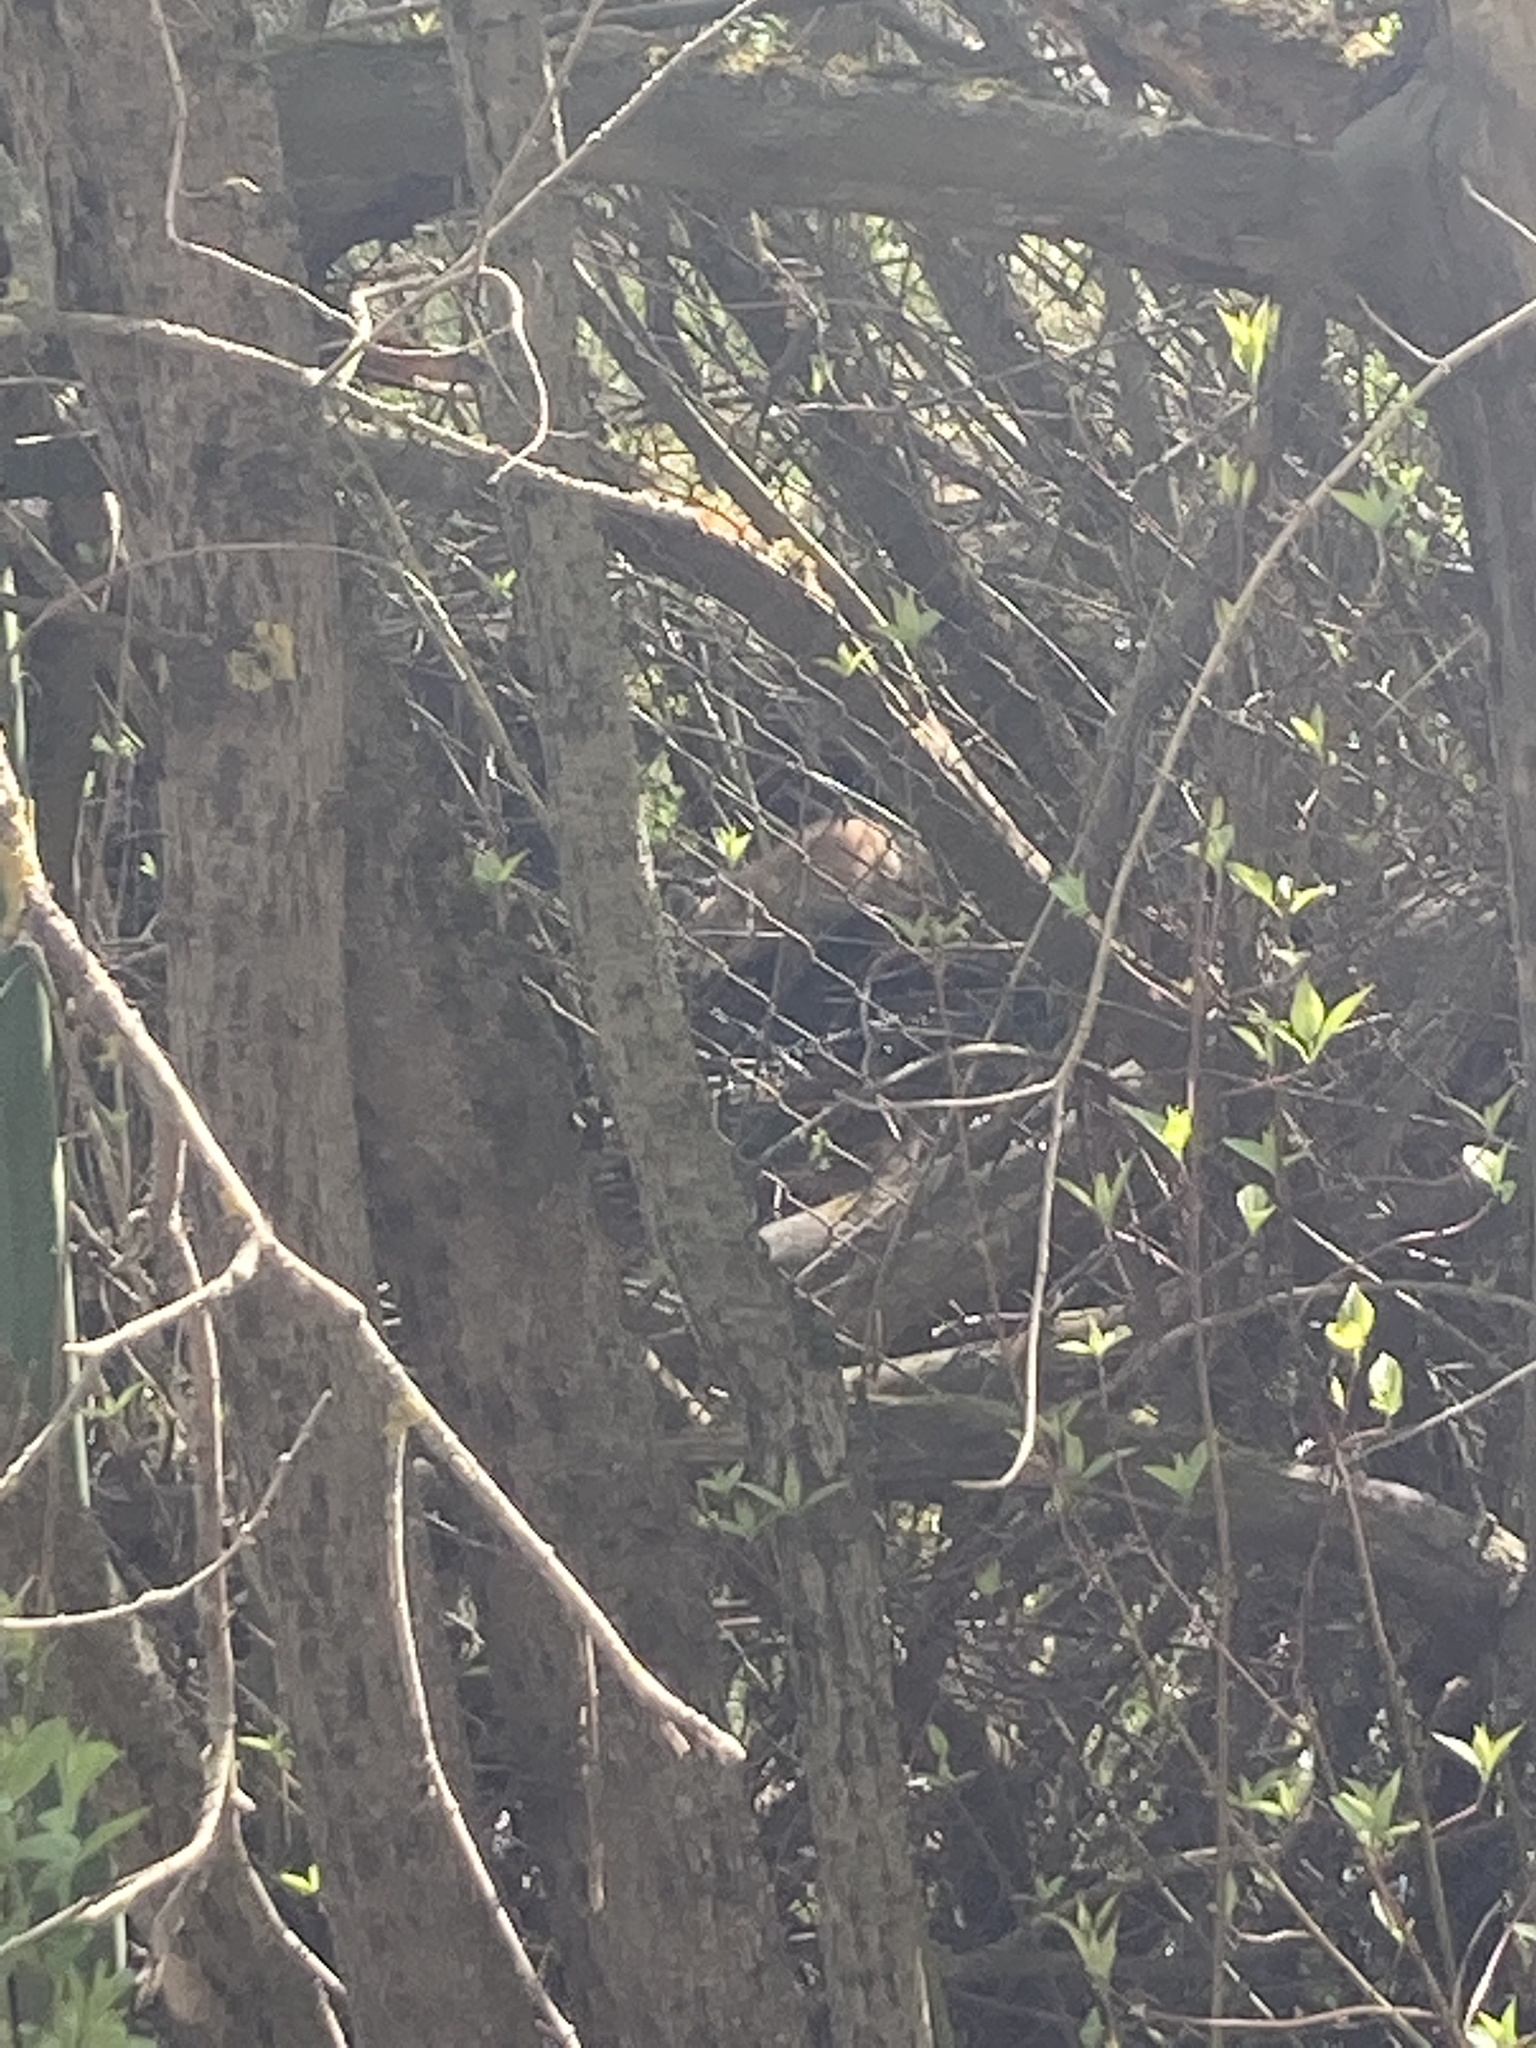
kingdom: Animalia
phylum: Chordata
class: Mammalia
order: Carnivora
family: Canidae
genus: Vulpes
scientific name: Vulpes vulpes
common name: Red fox
